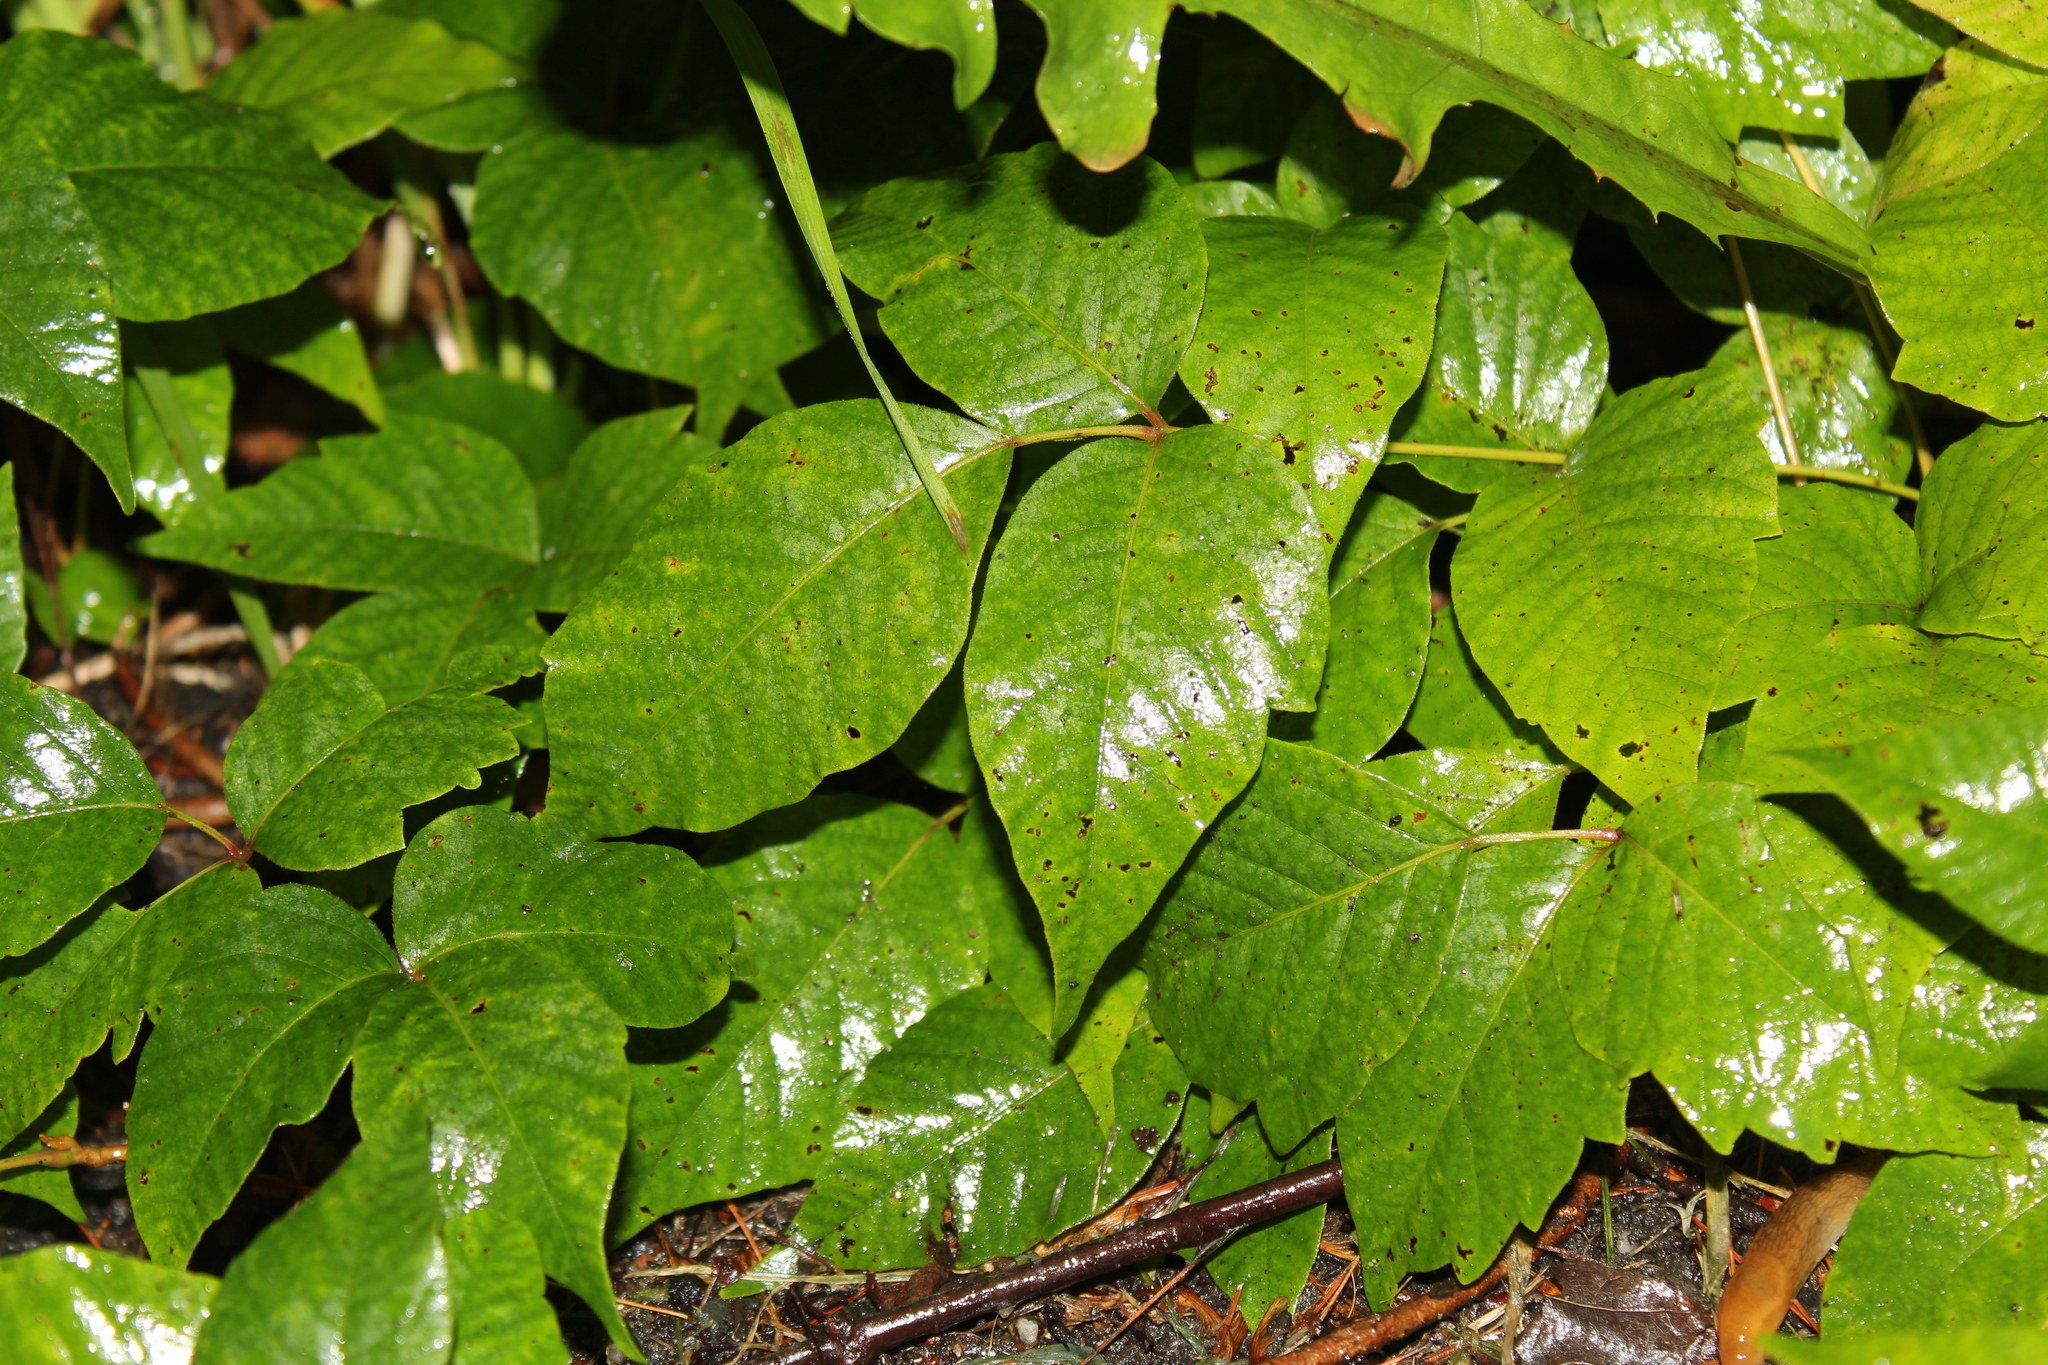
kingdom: Plantae
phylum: Tracheophyta
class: Magnoliopsida
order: Sapindales
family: Anacardiaceae
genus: Toxicodendron
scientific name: Toxicodendron radicans
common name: Poison ivy
